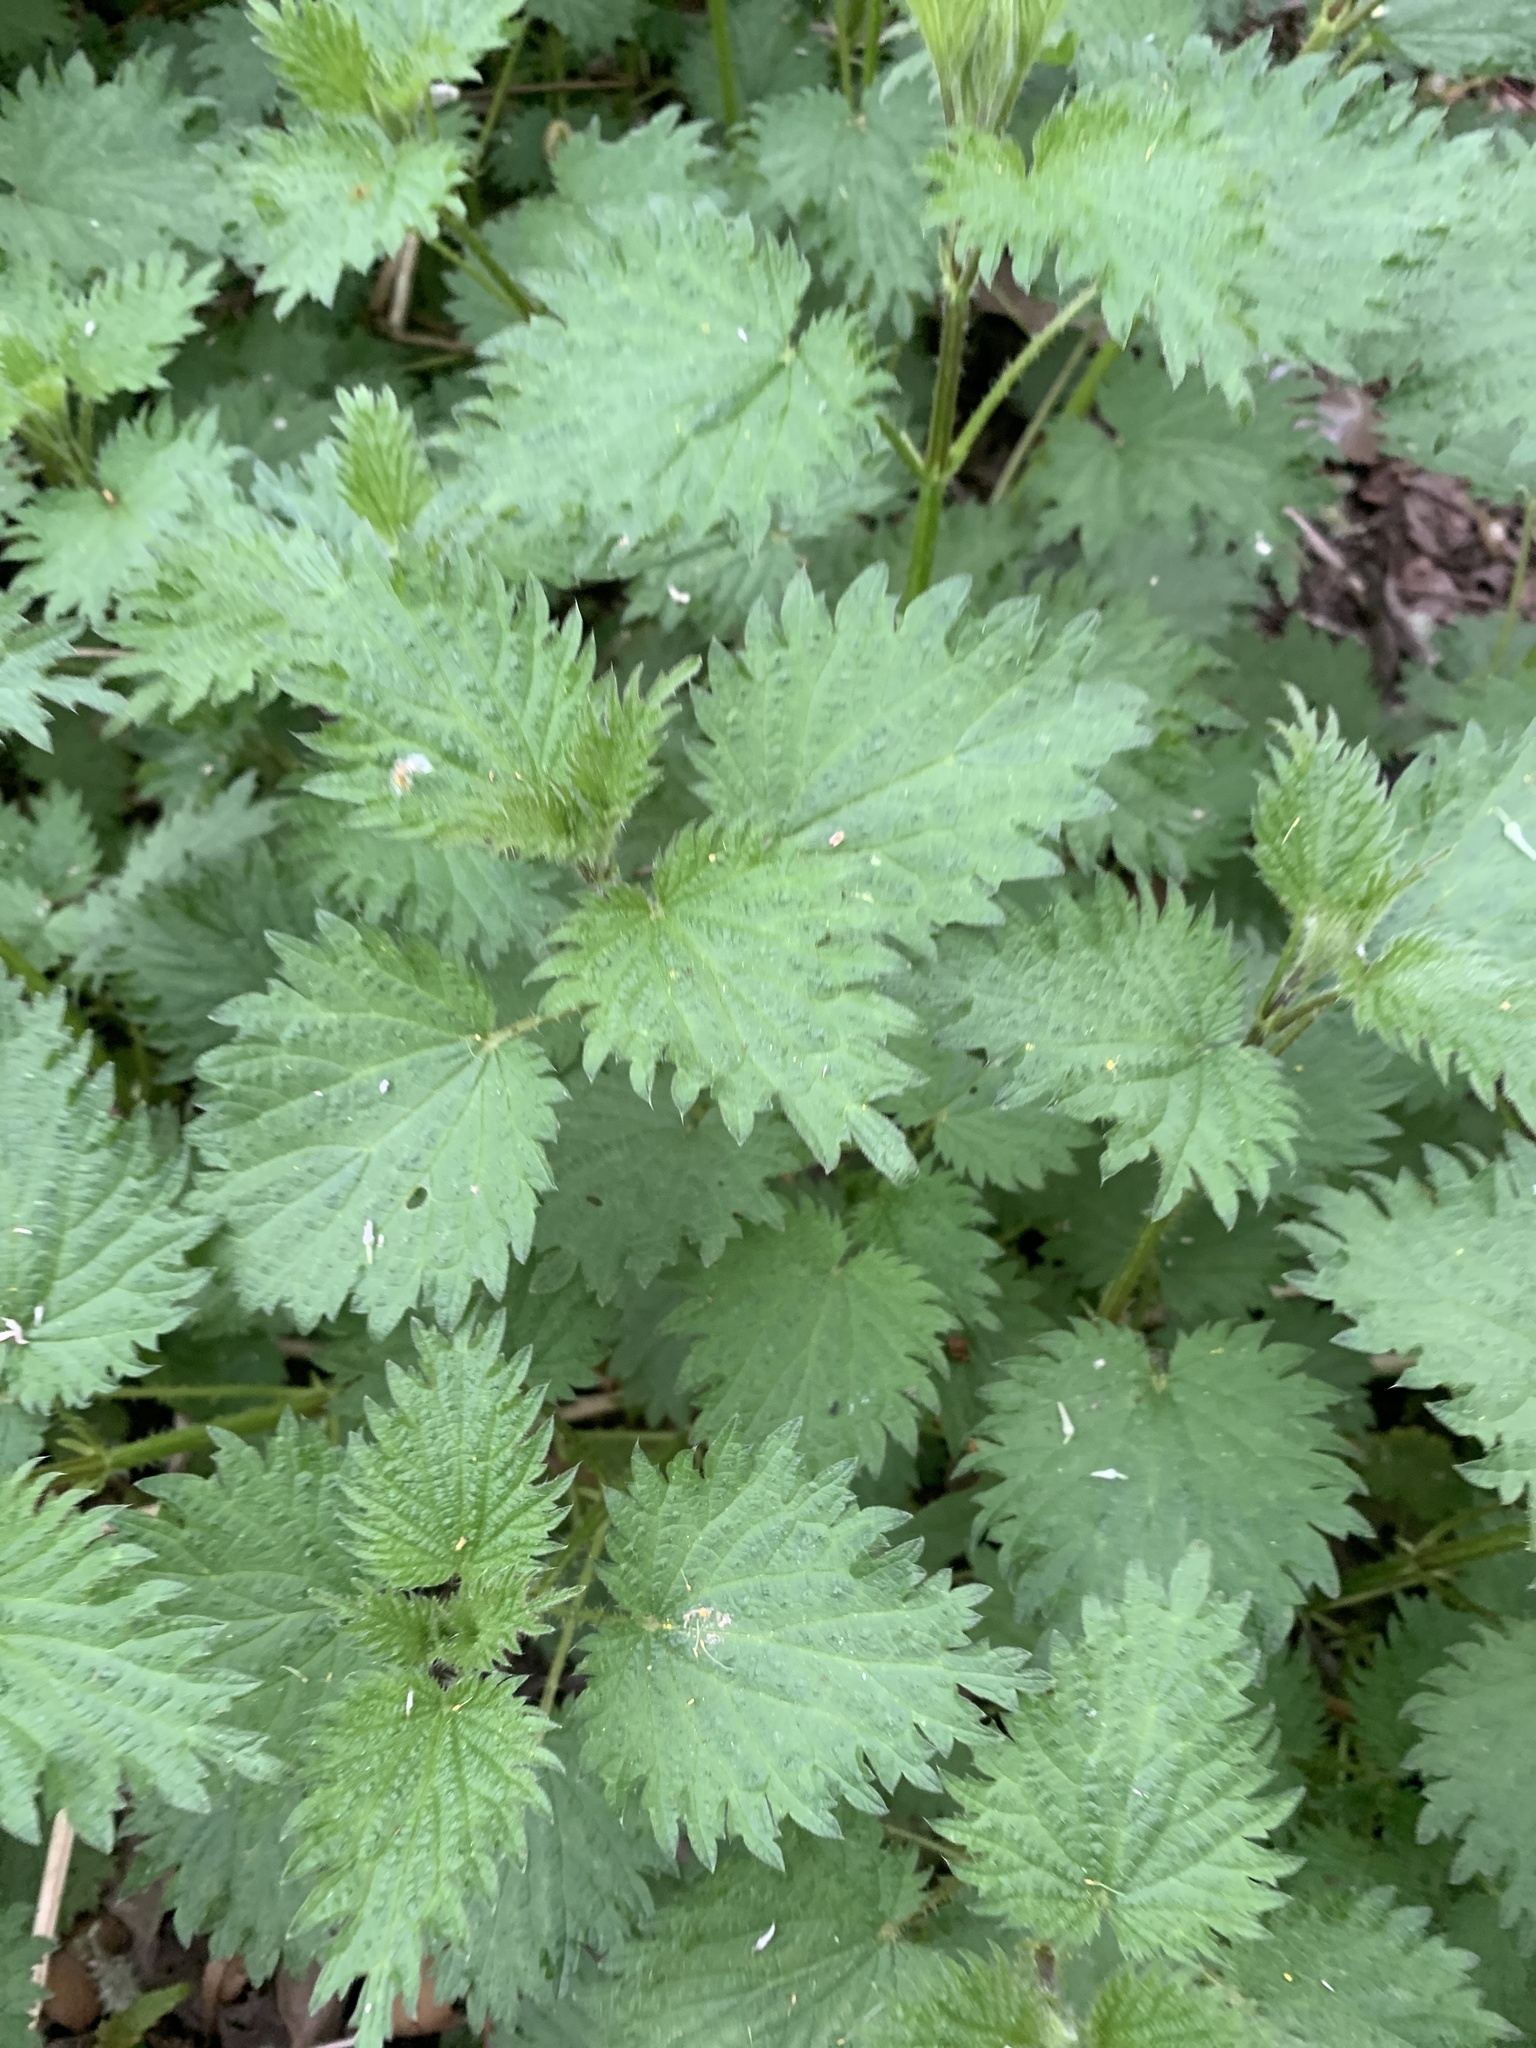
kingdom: Plantae
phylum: Tracheophyta
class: Magnoliopsida
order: Rosales
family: Urticaceae
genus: Urtica
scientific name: Urtica dioica
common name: Common nettle
